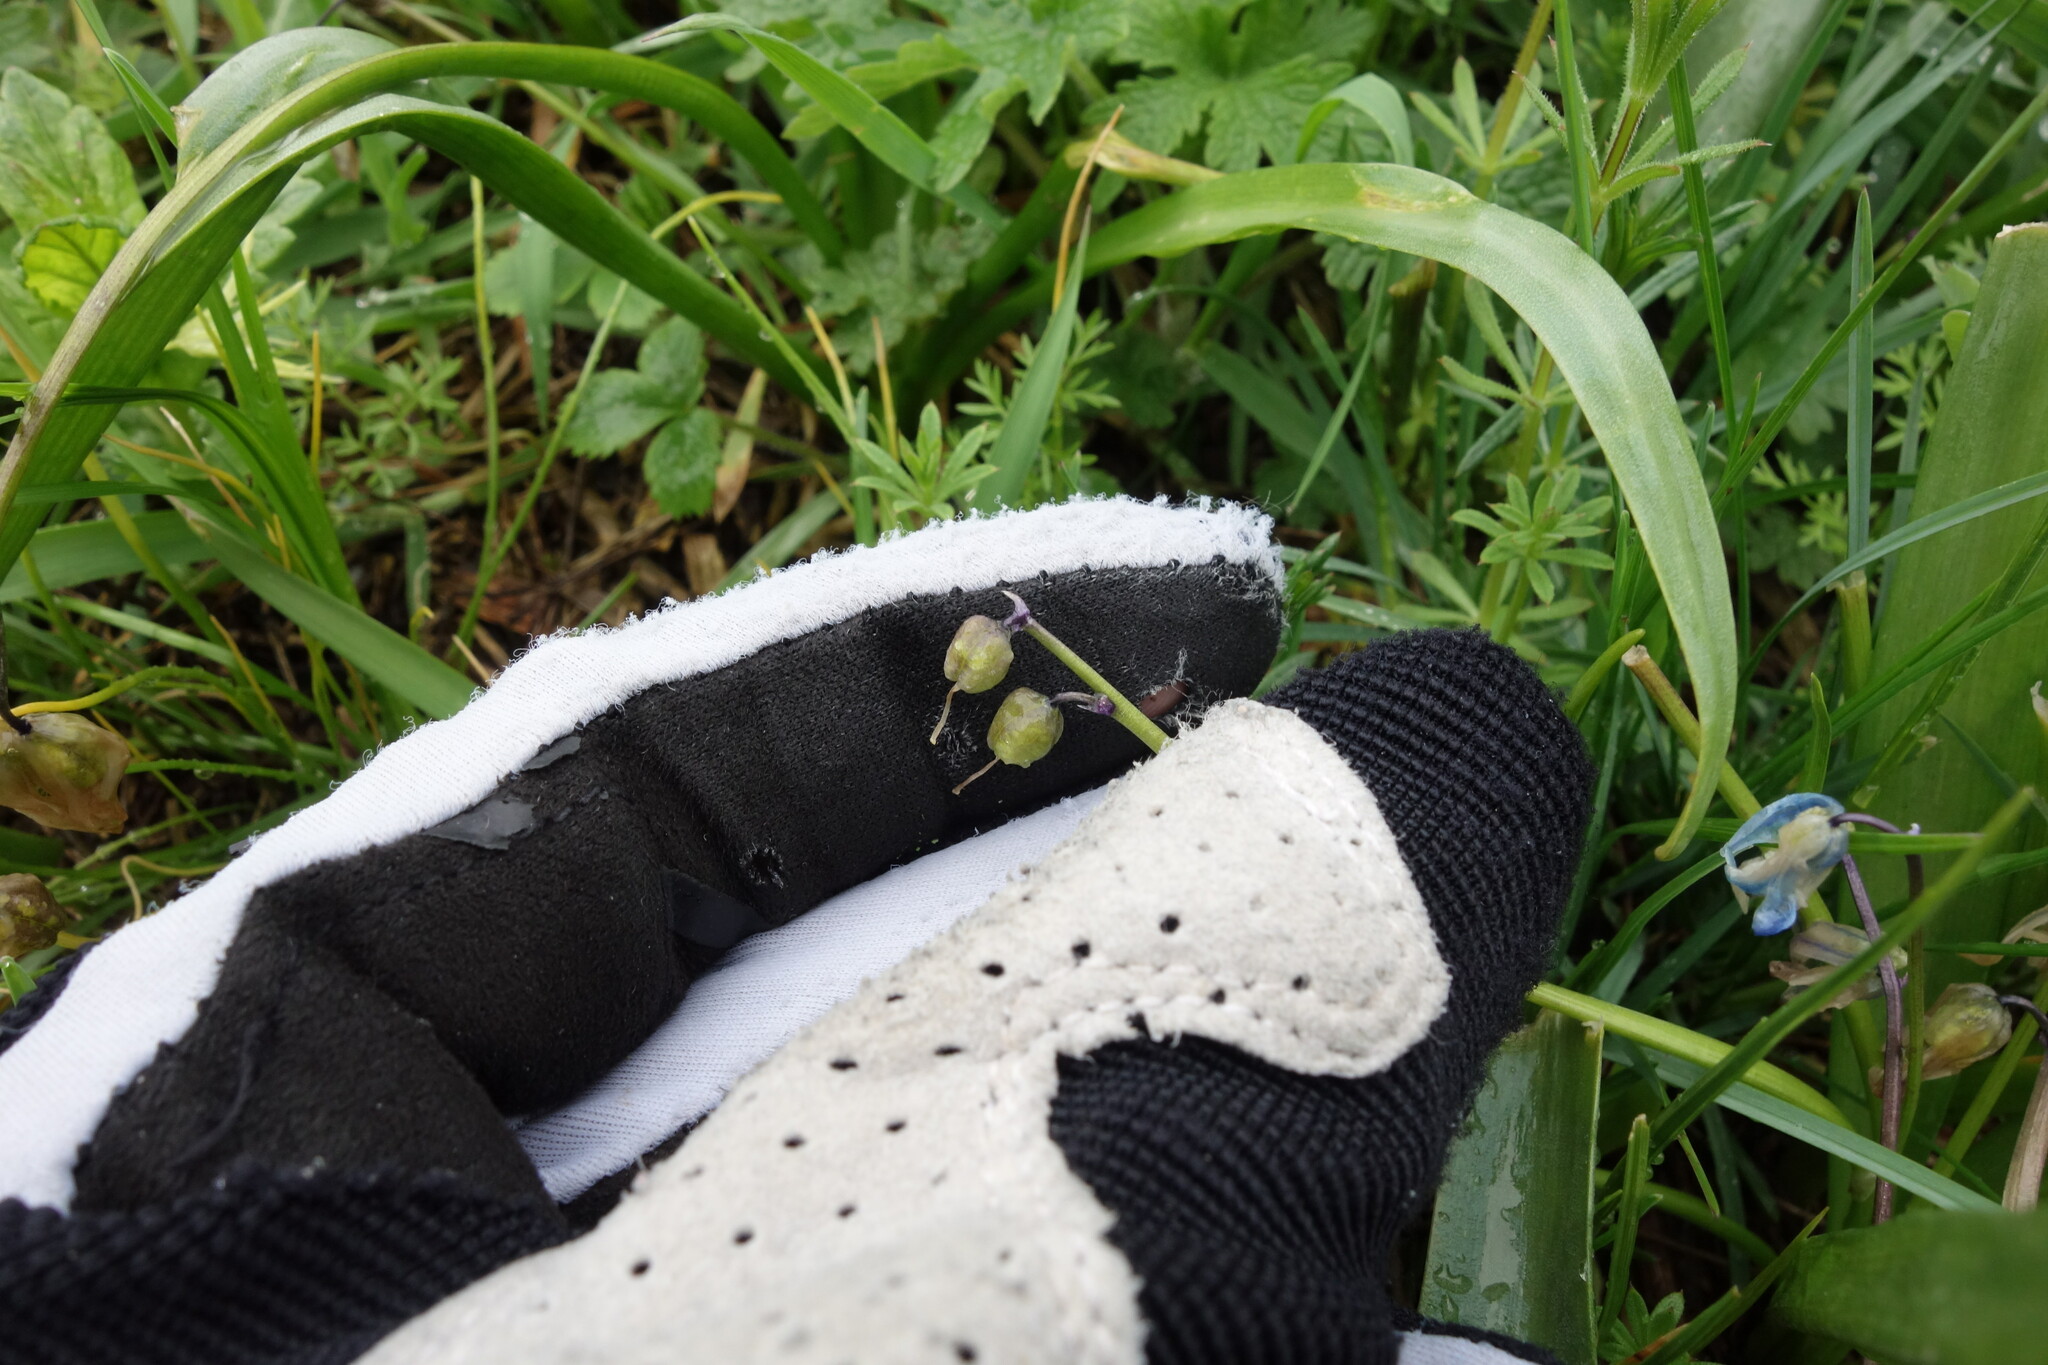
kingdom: Plantae
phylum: Tracheophyta
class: Liliopsida
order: Asparagales
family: Asparagaceae
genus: Scilla
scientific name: Scilla siberica
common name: Siberian squill
